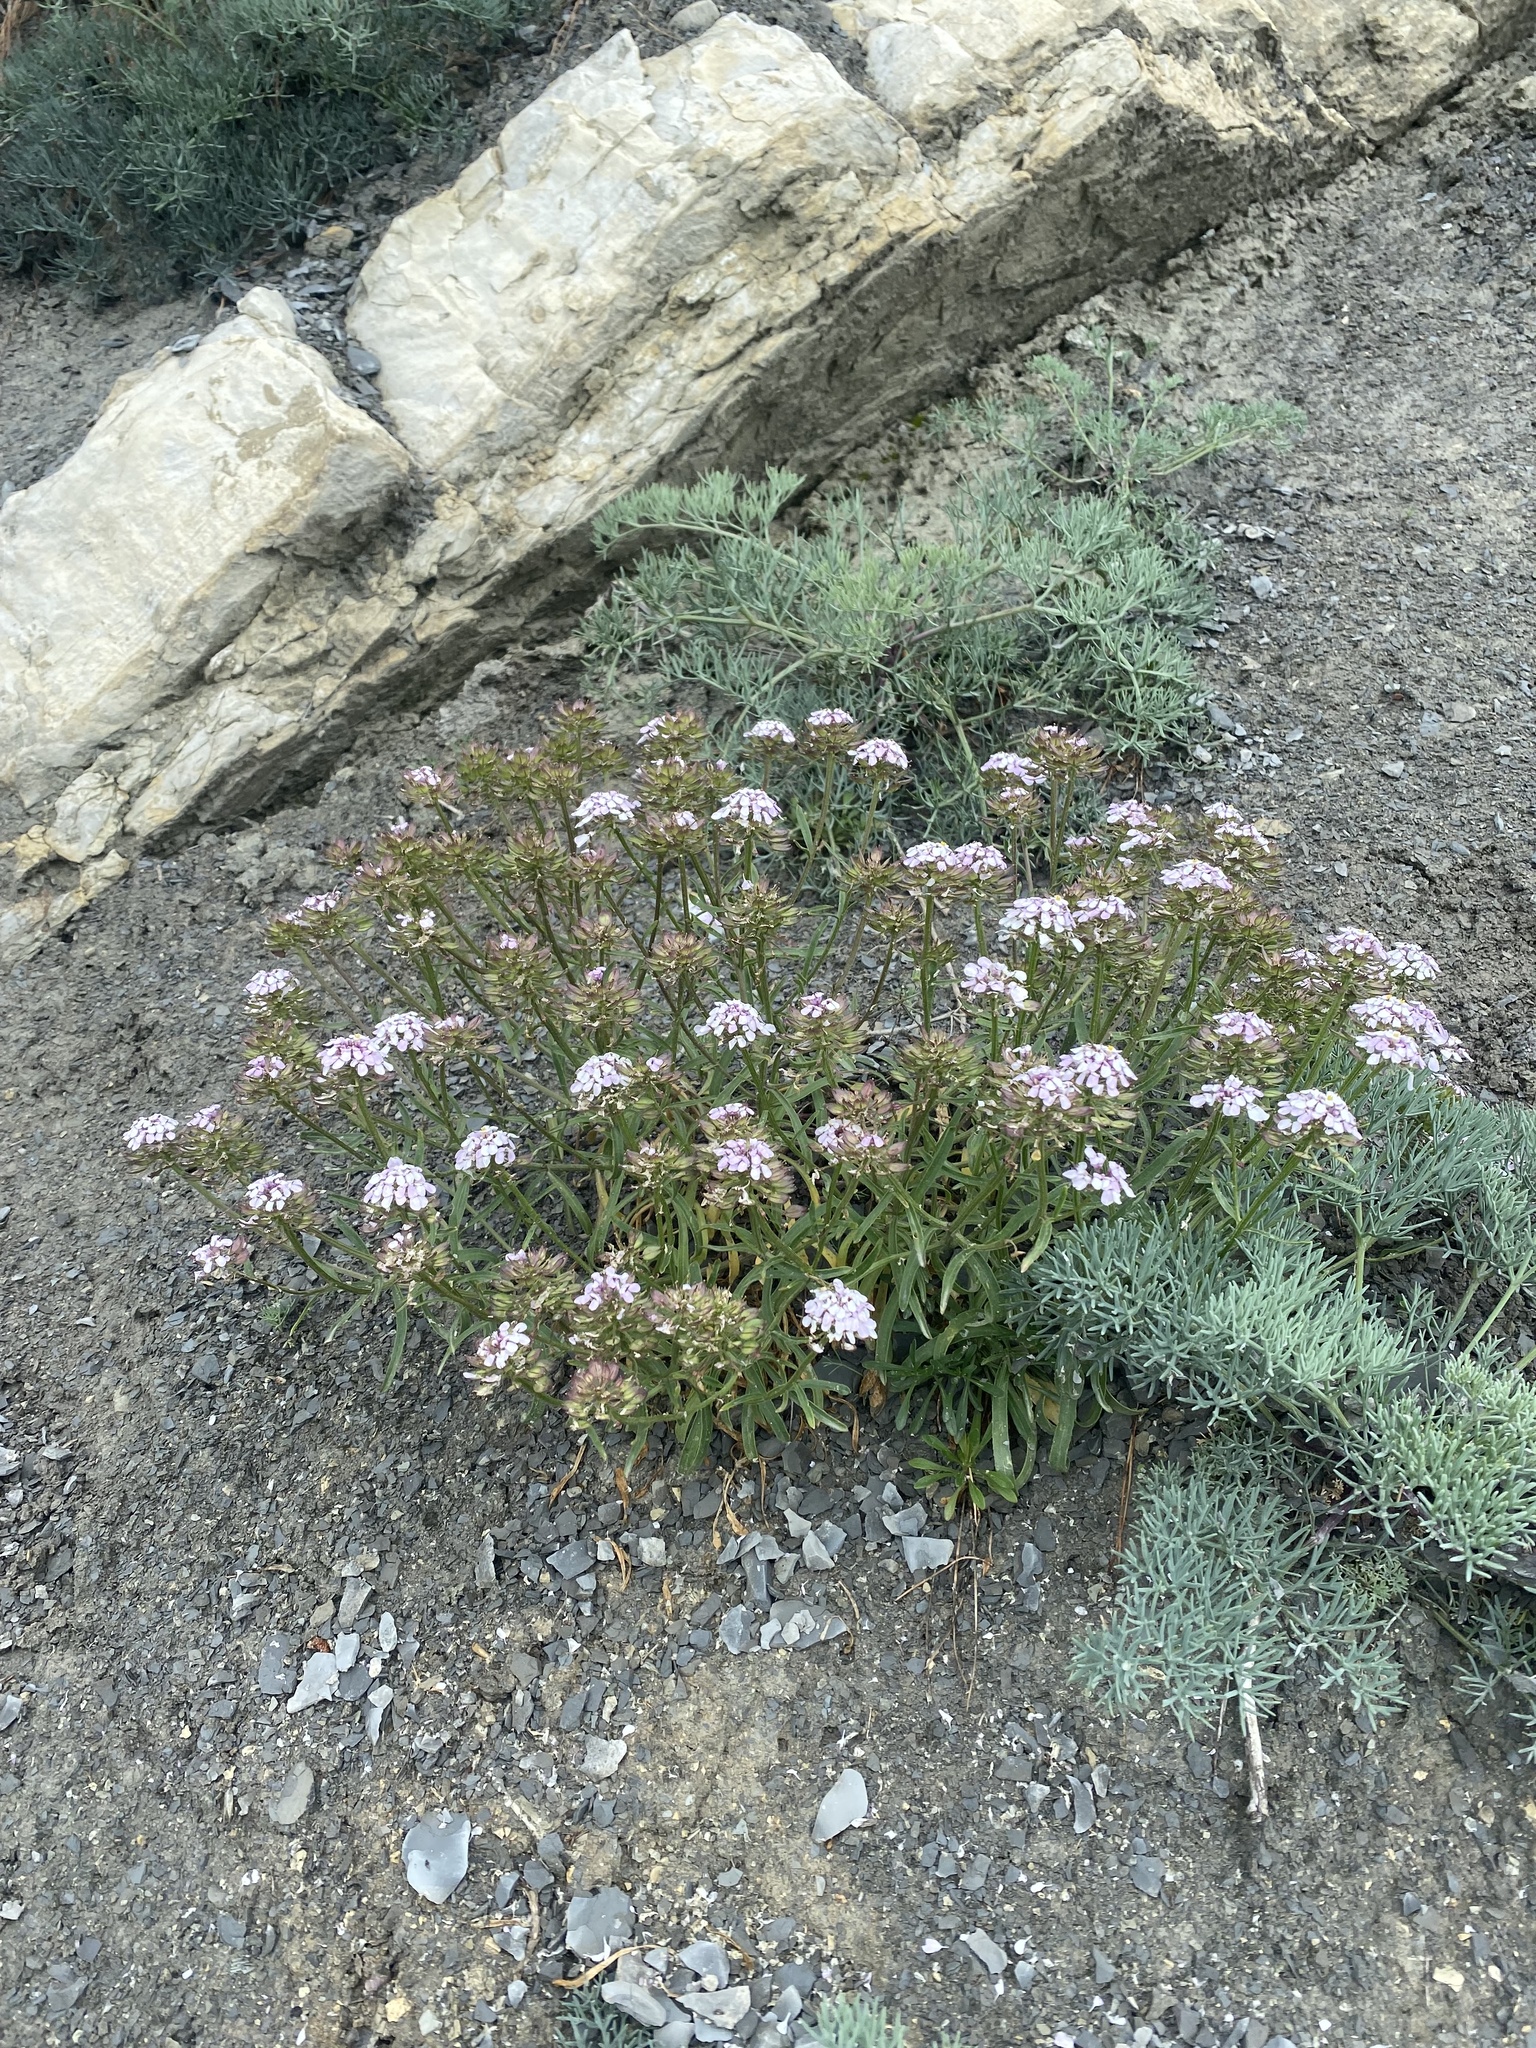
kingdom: Plantae
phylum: Tracheophyta
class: Magnoliopsida
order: Brassicales
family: Brassicaceae
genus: Iberis
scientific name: Iberis simplex
